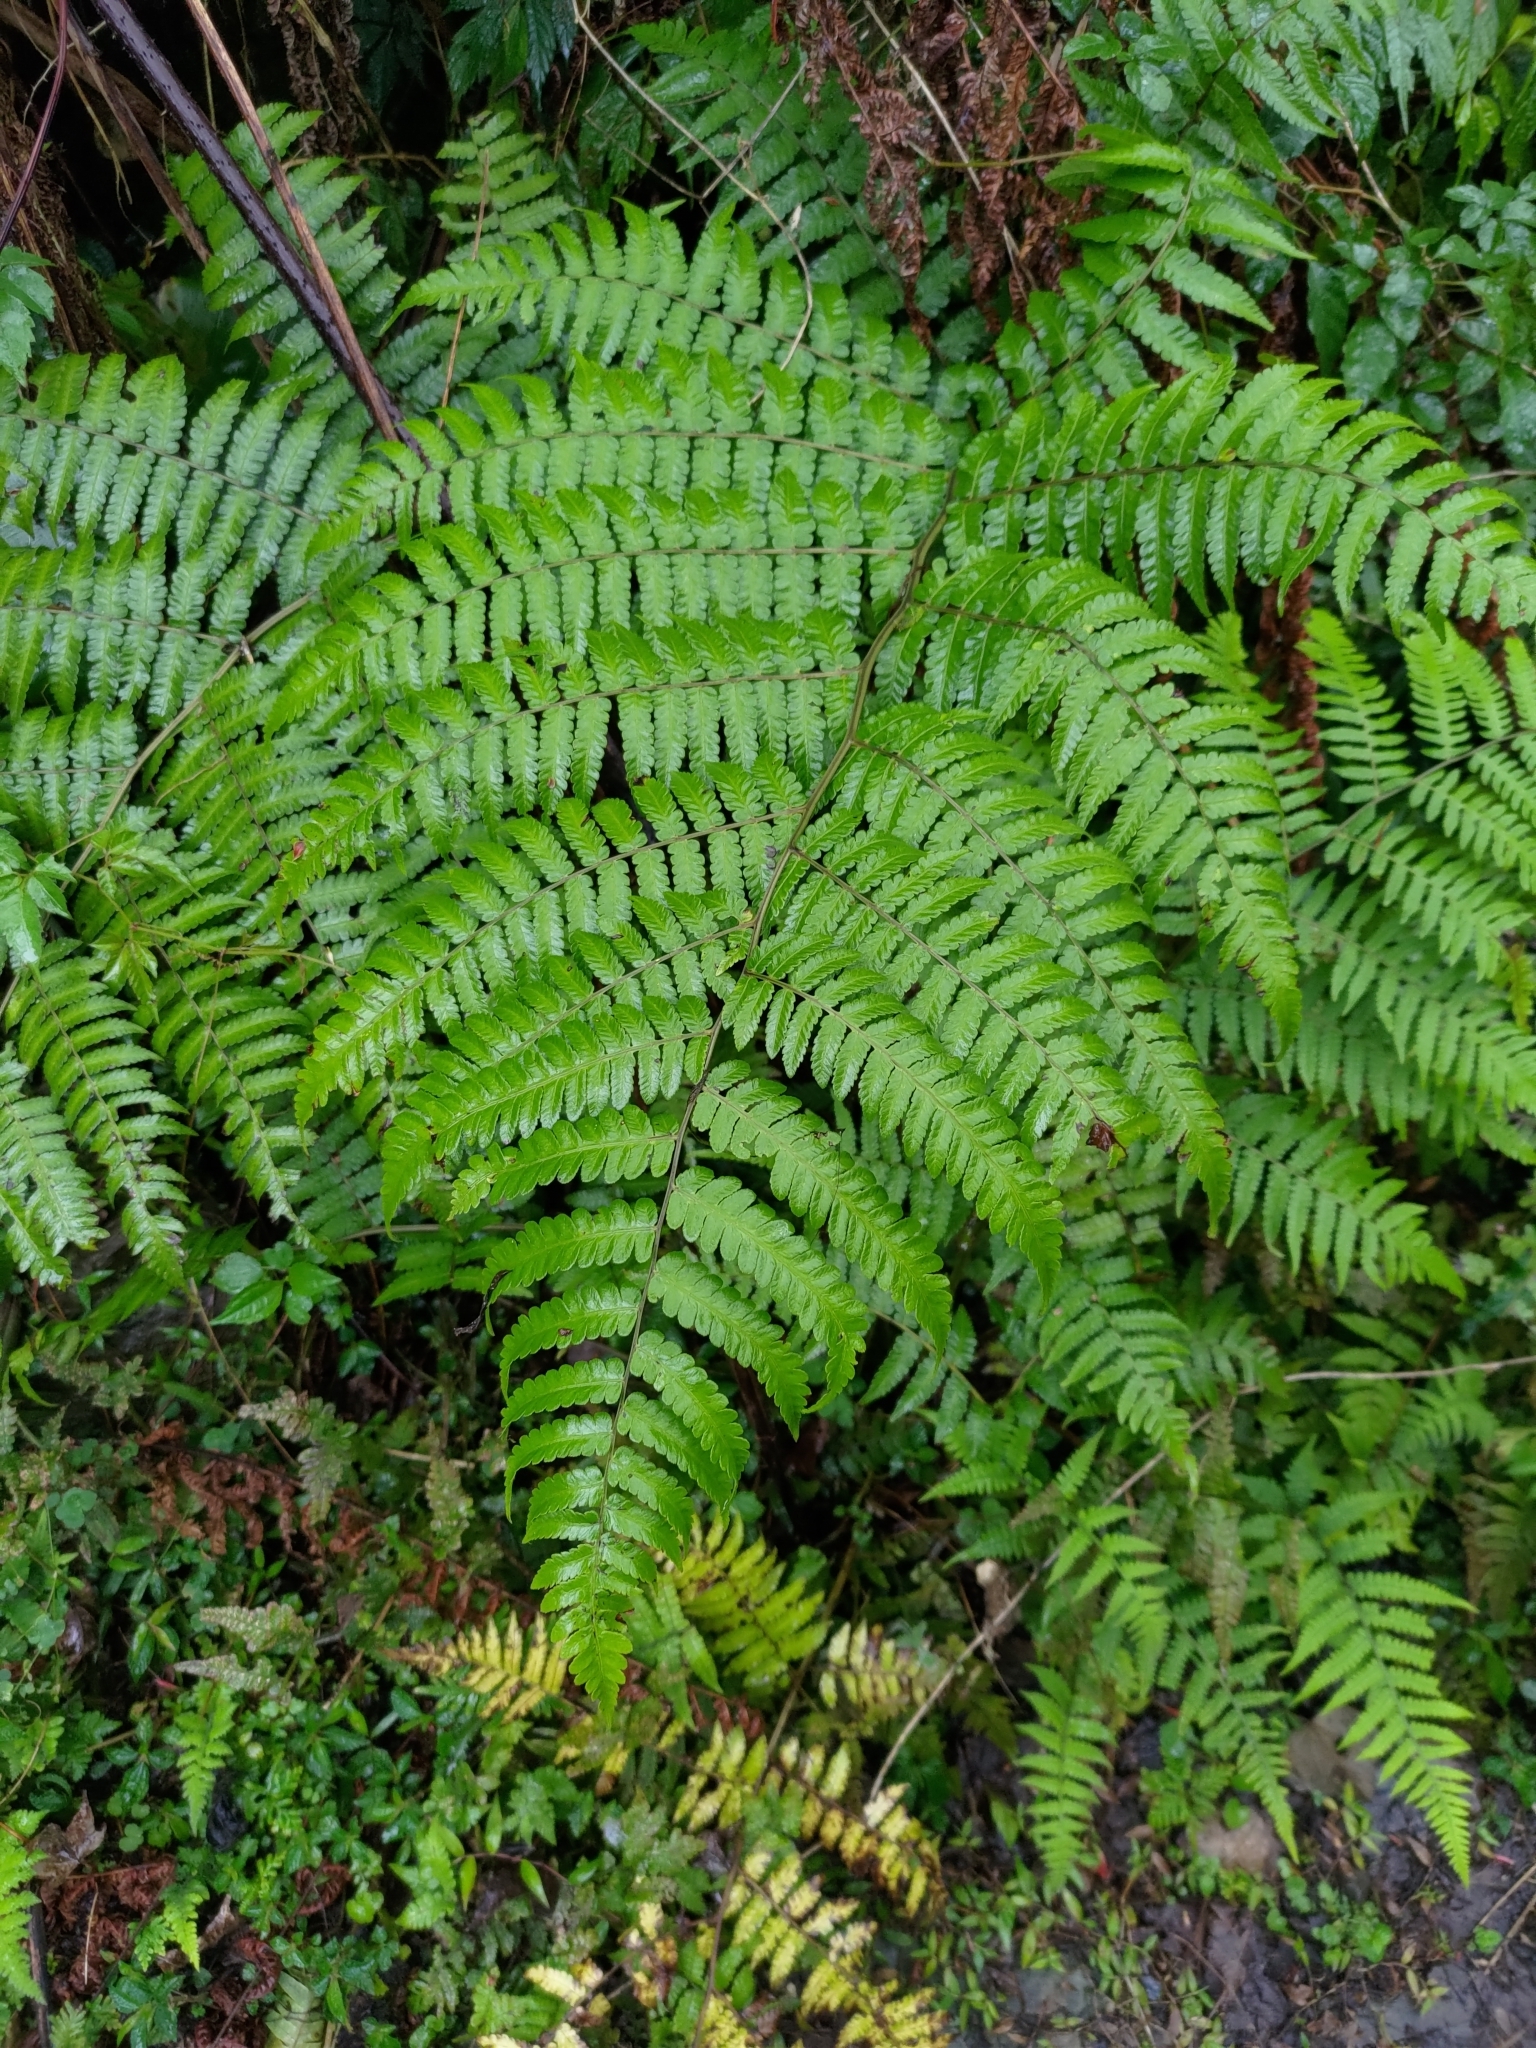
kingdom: Plantae
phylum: Tracheophyta
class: Polypodiopsida
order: Polypodiales
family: Athyriaceae
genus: Diplazium
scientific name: Diplazium maximum
